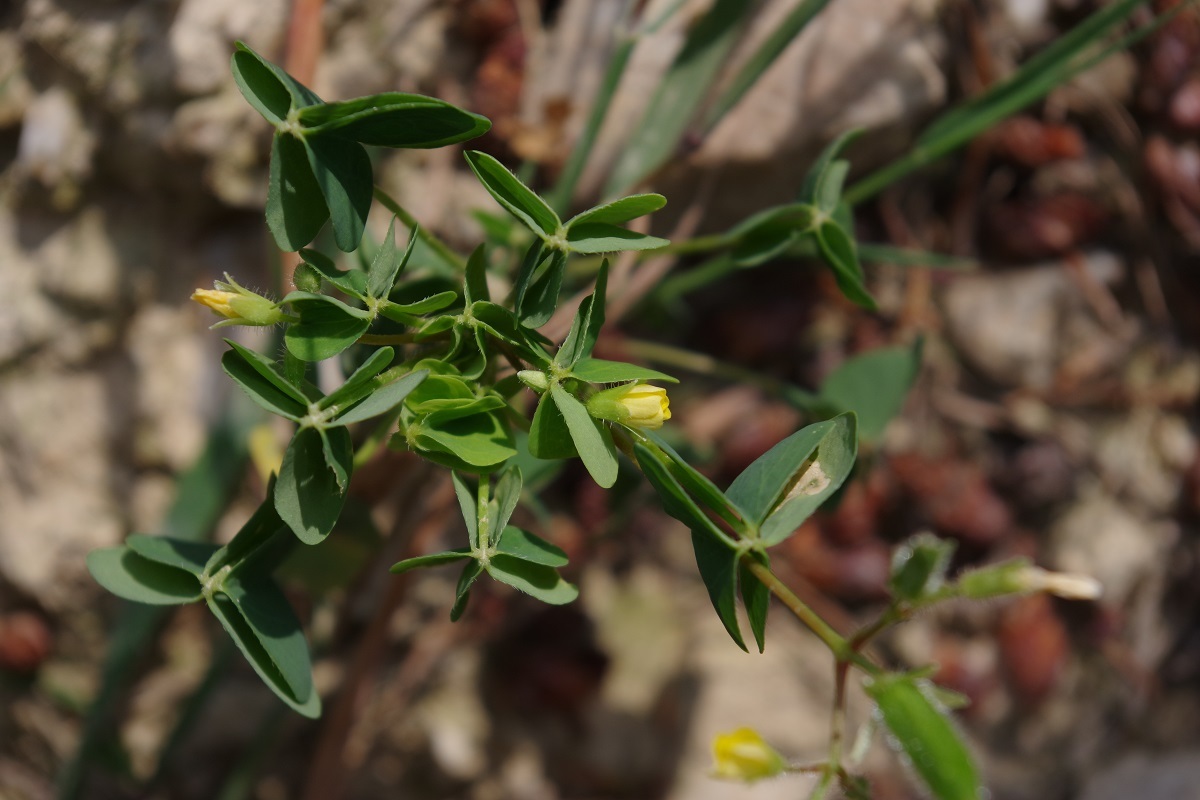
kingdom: Plantae
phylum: Tracheophyta
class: Magnoliopsida
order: Oxalidales
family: Oxalidaceae
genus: Oxalis
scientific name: Oxalis stricta
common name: Upright yellow-sorrel
